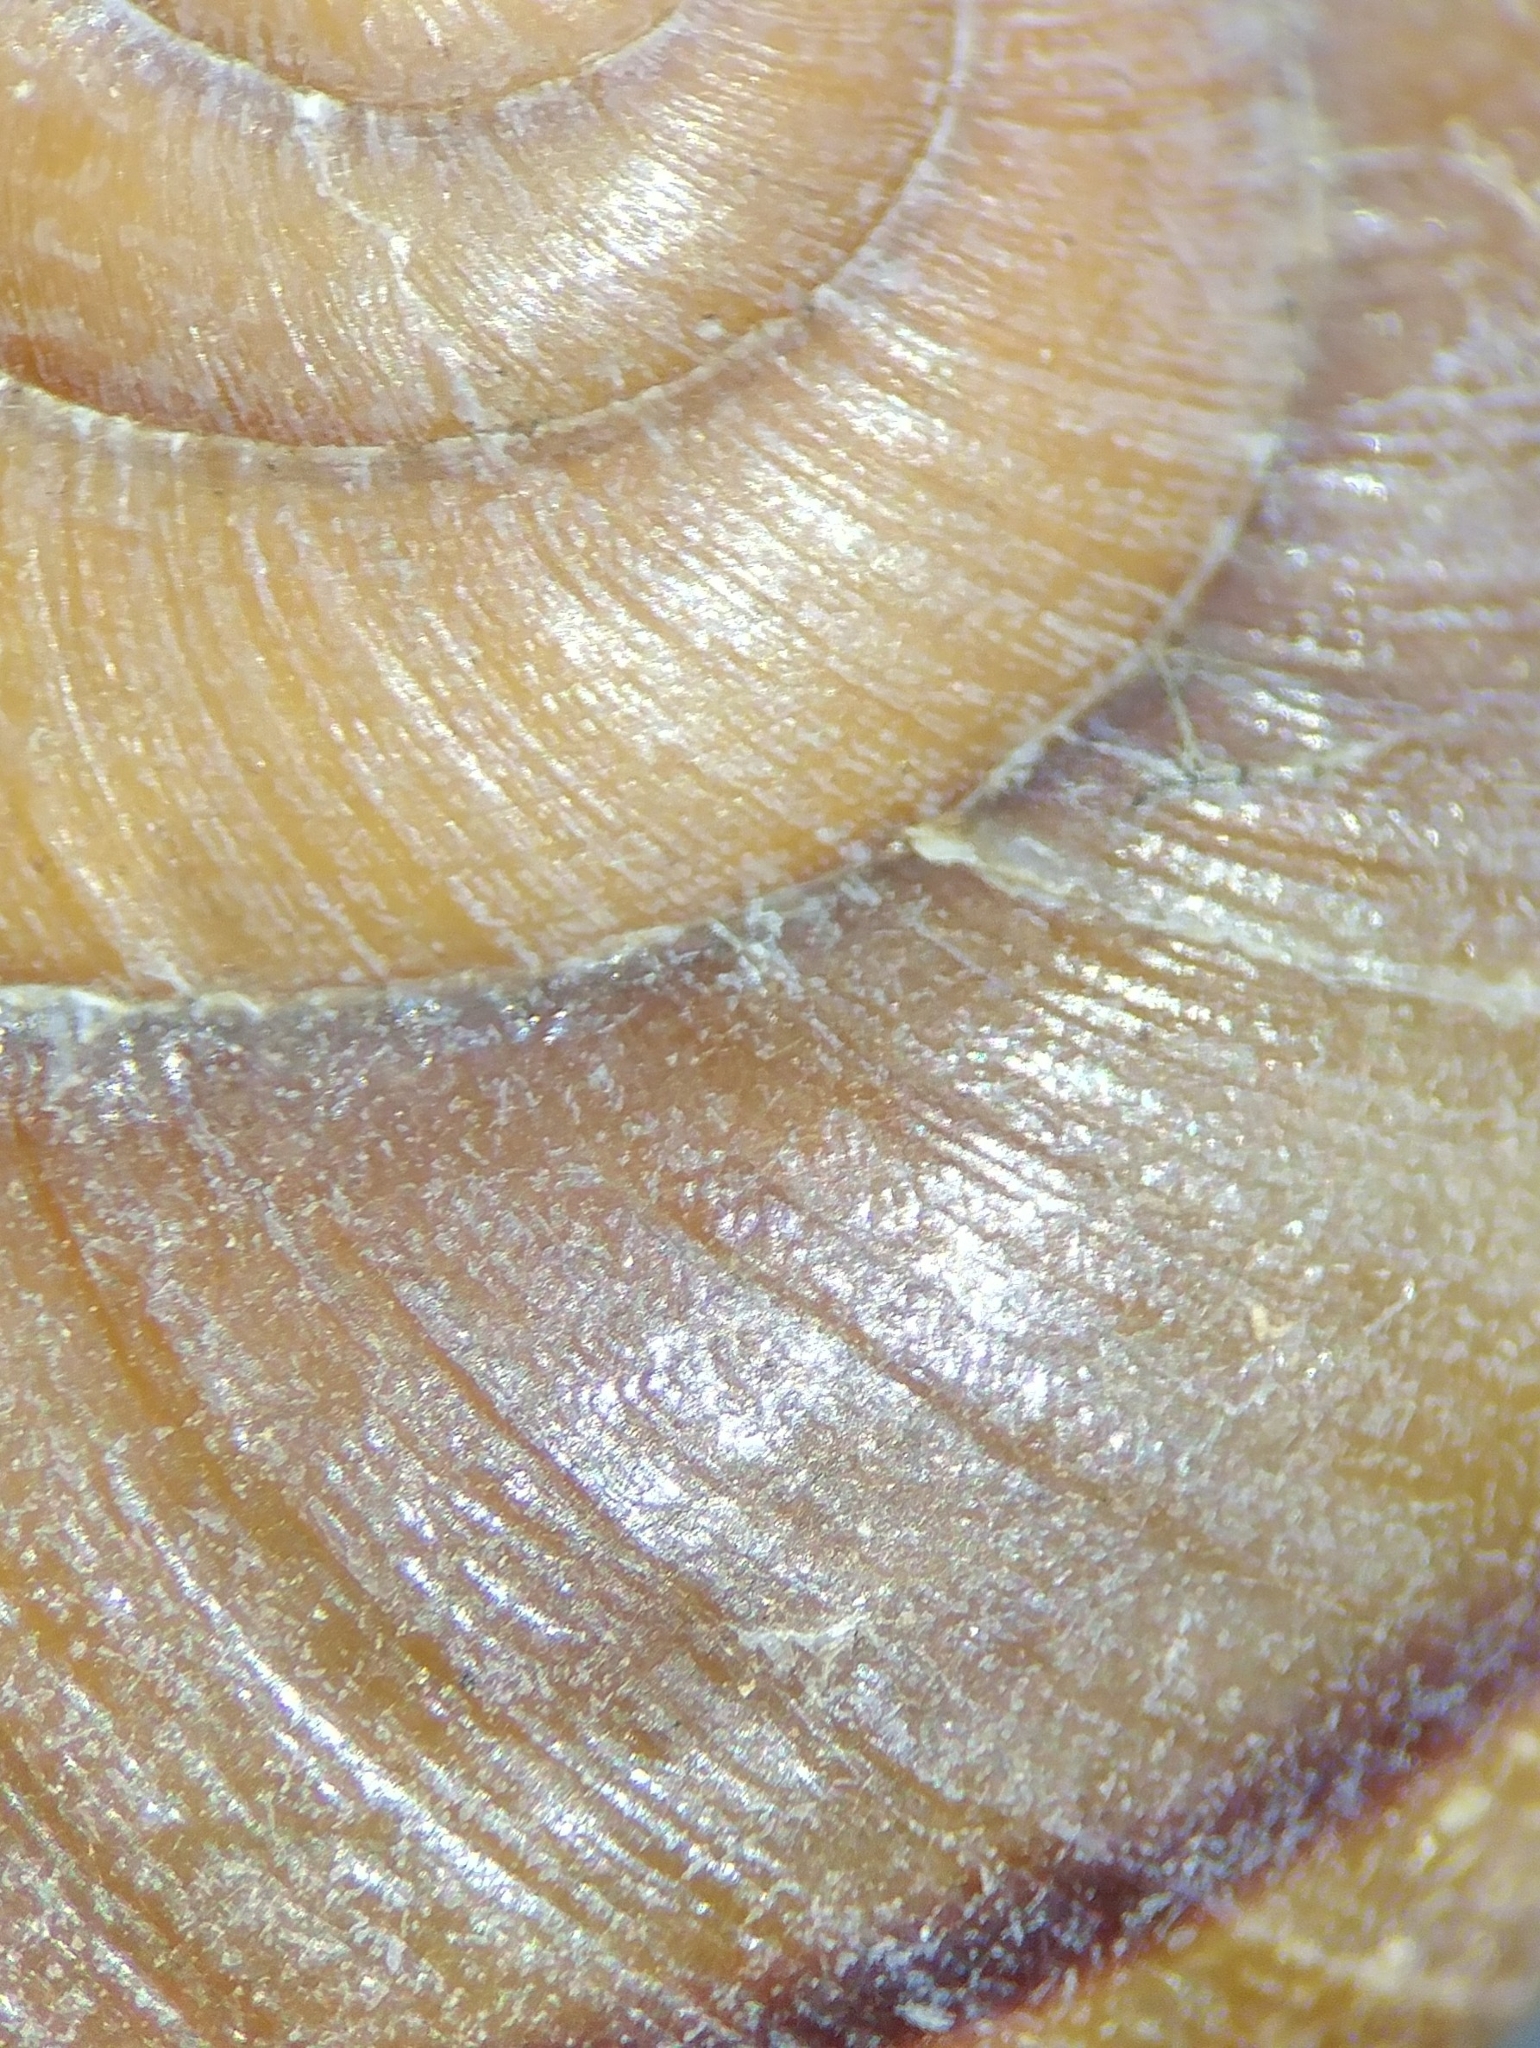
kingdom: Animalia
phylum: Mollusca
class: Gastropoda
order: Stylommatophora
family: Xanthonychidae
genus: Xerarionta
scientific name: Xerarionta redimita
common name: Wreathed cactus snail
